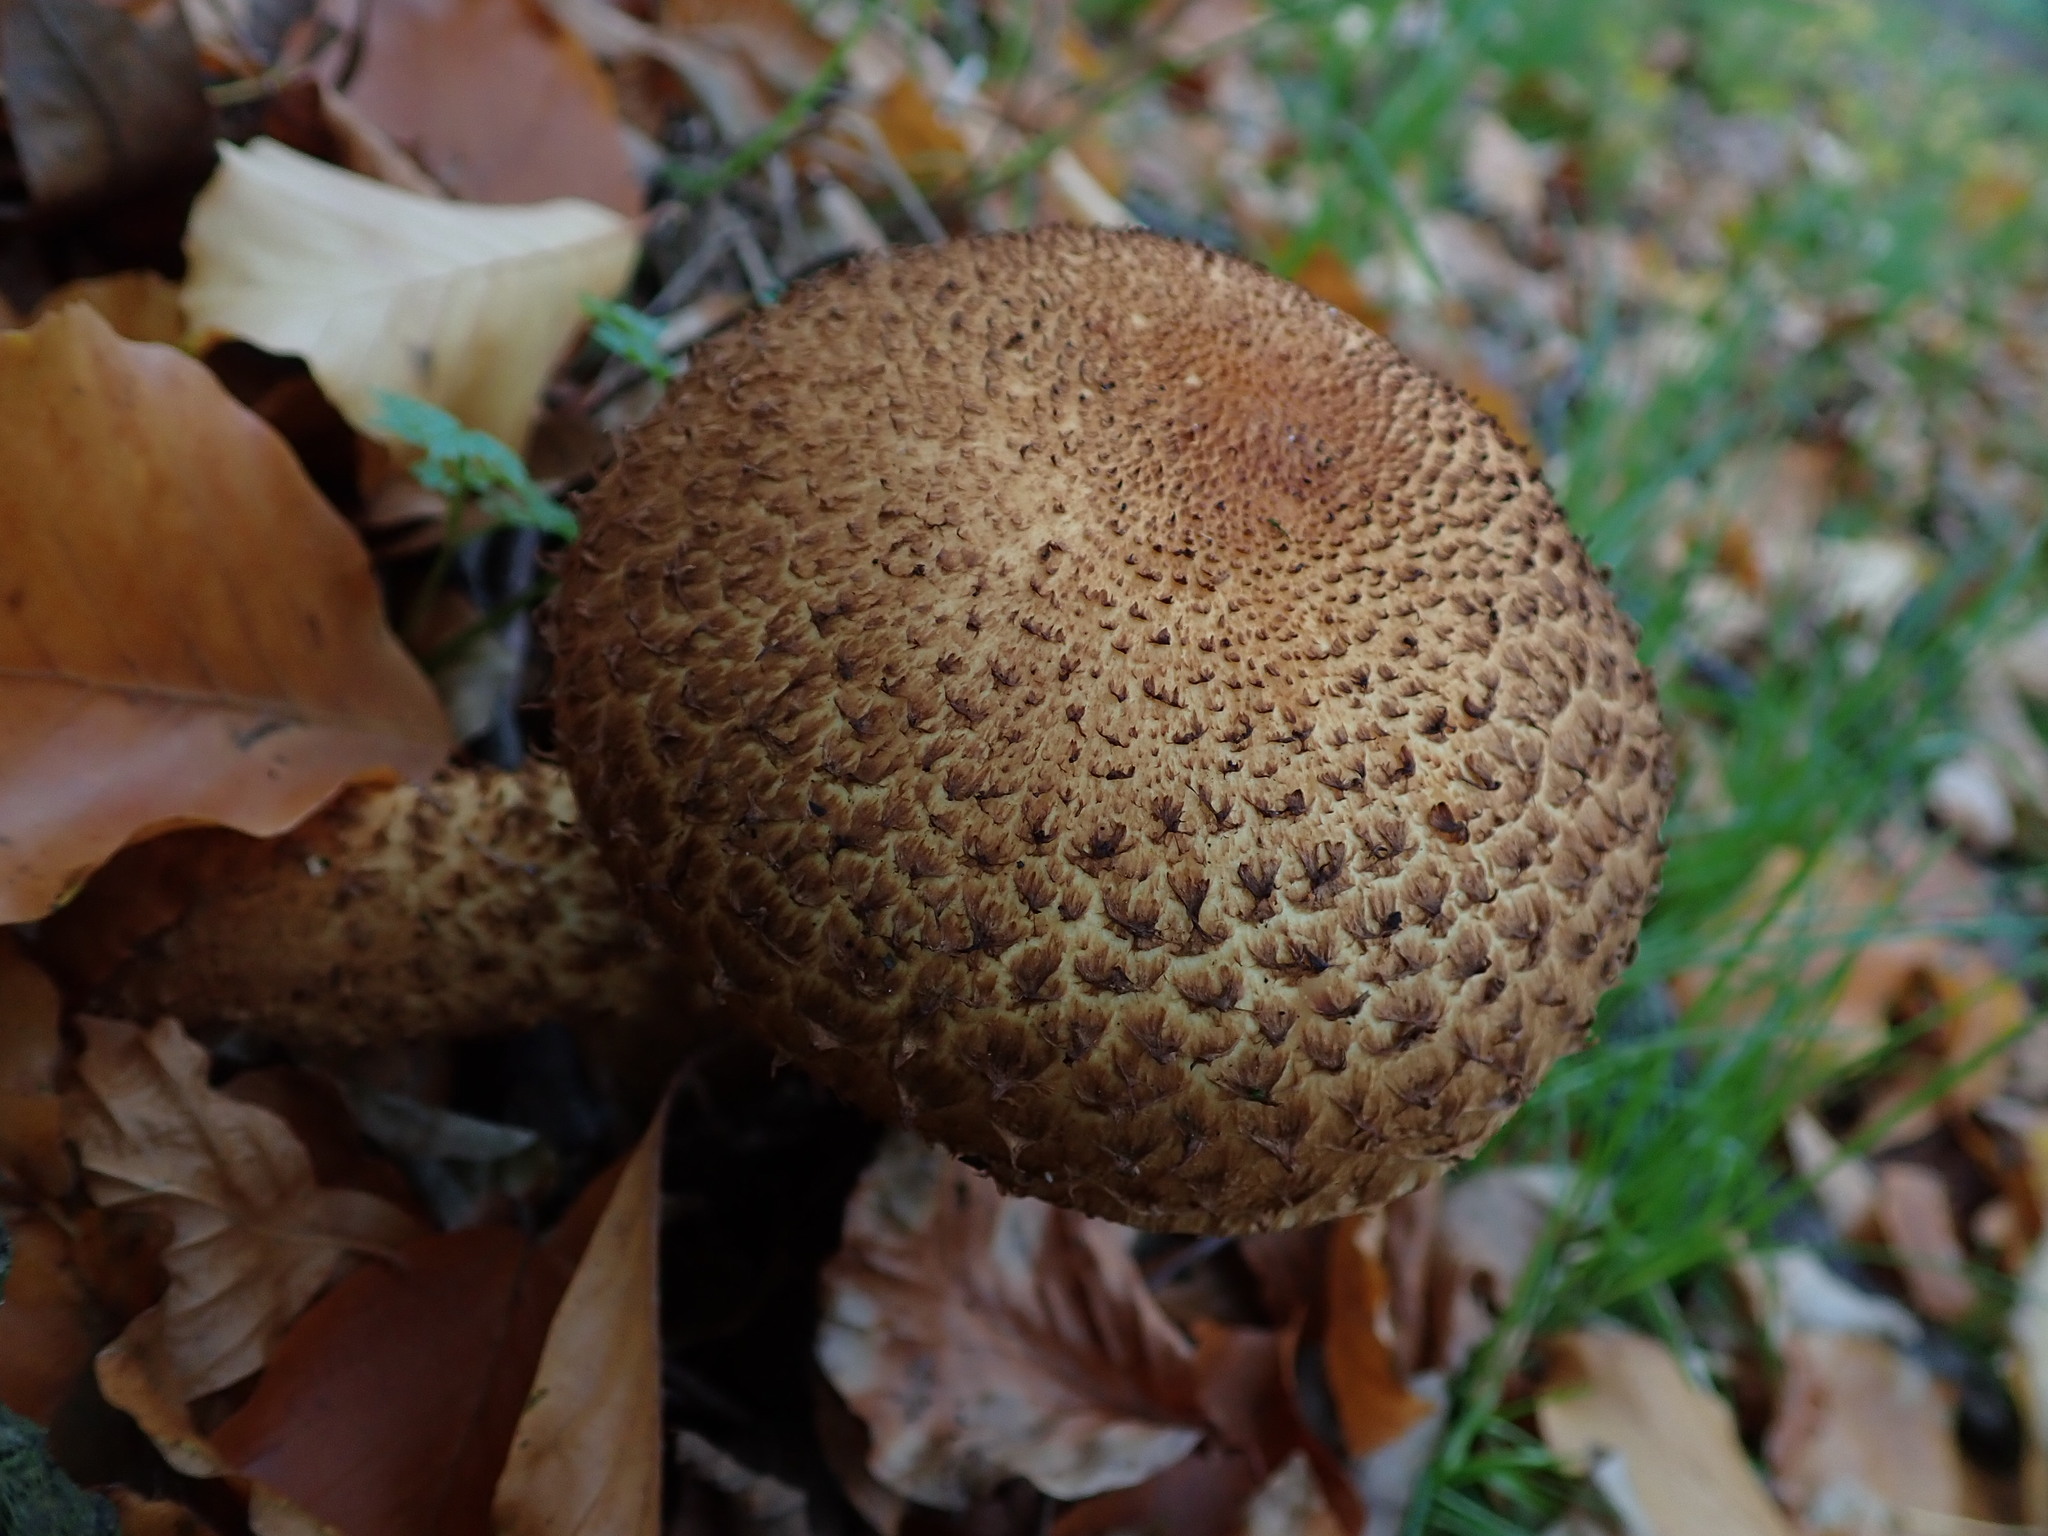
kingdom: Fungi
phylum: Basidiomycota
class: Agaricomycetes
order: Agaricales
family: Strophariaceae
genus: Pholiota
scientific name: Pholiota squarrosa
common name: Shaggy pholiota
